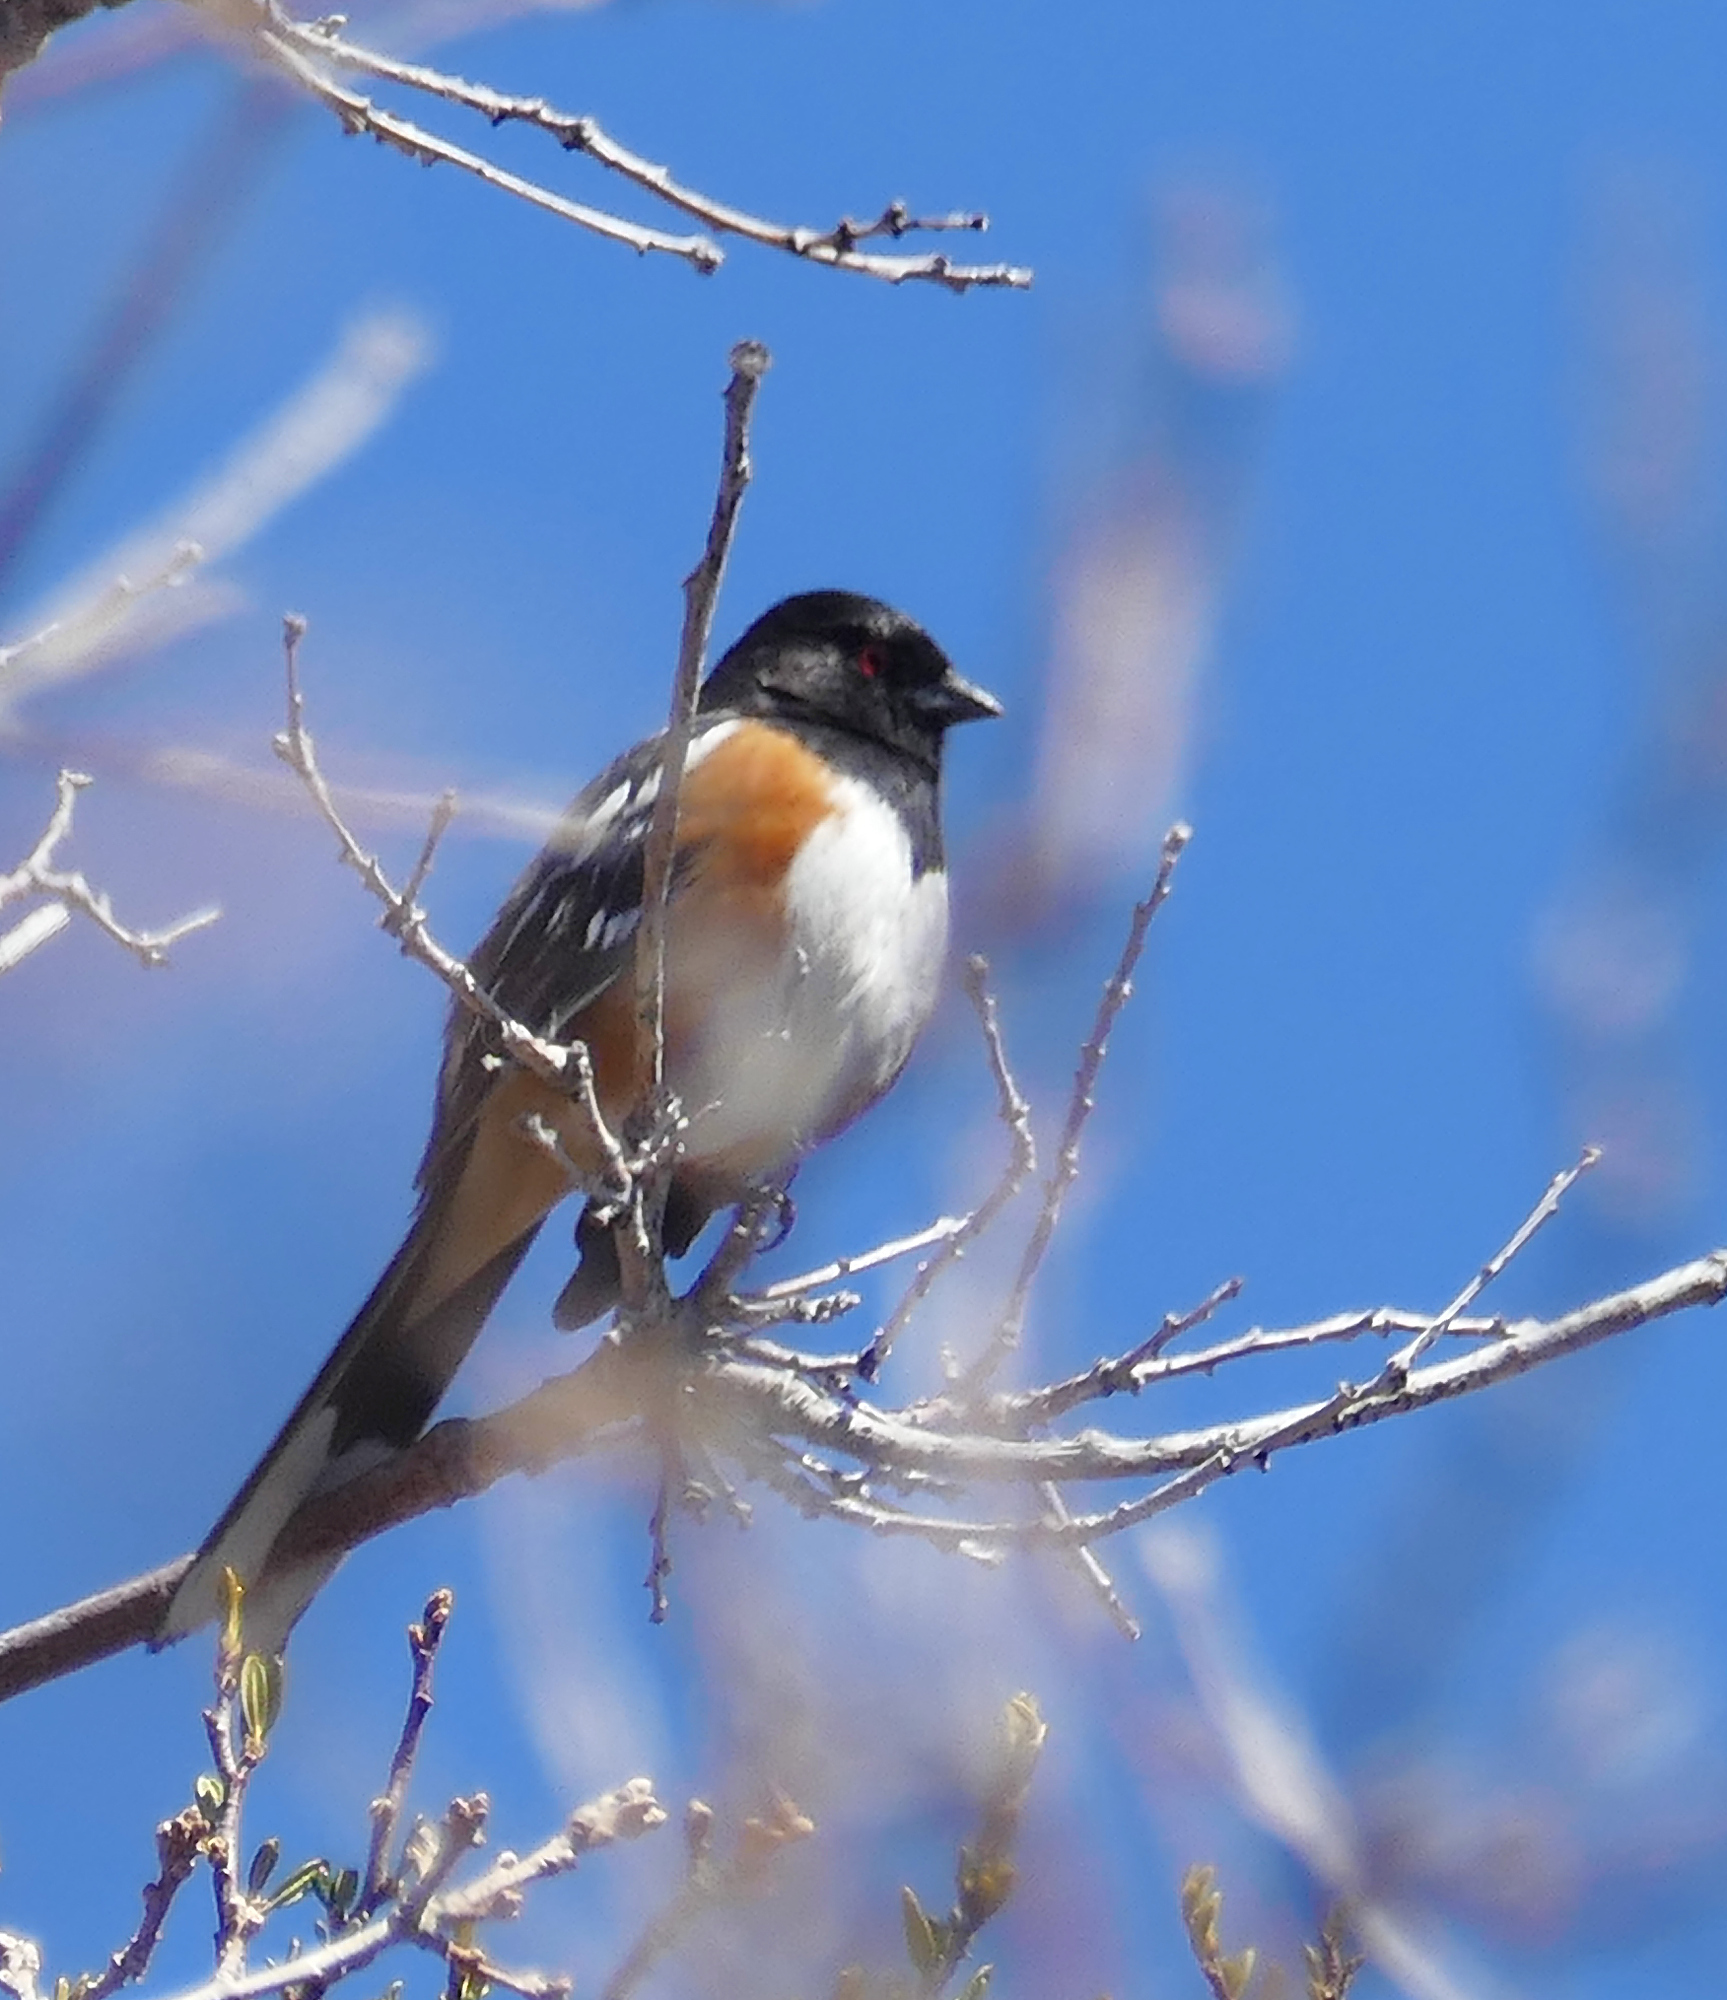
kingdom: Animalia
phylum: Chordata
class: Aves
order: Passeriformes
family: Passerellidae
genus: Pipilo
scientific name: Pipilo maculatus
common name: Spotted towhee
